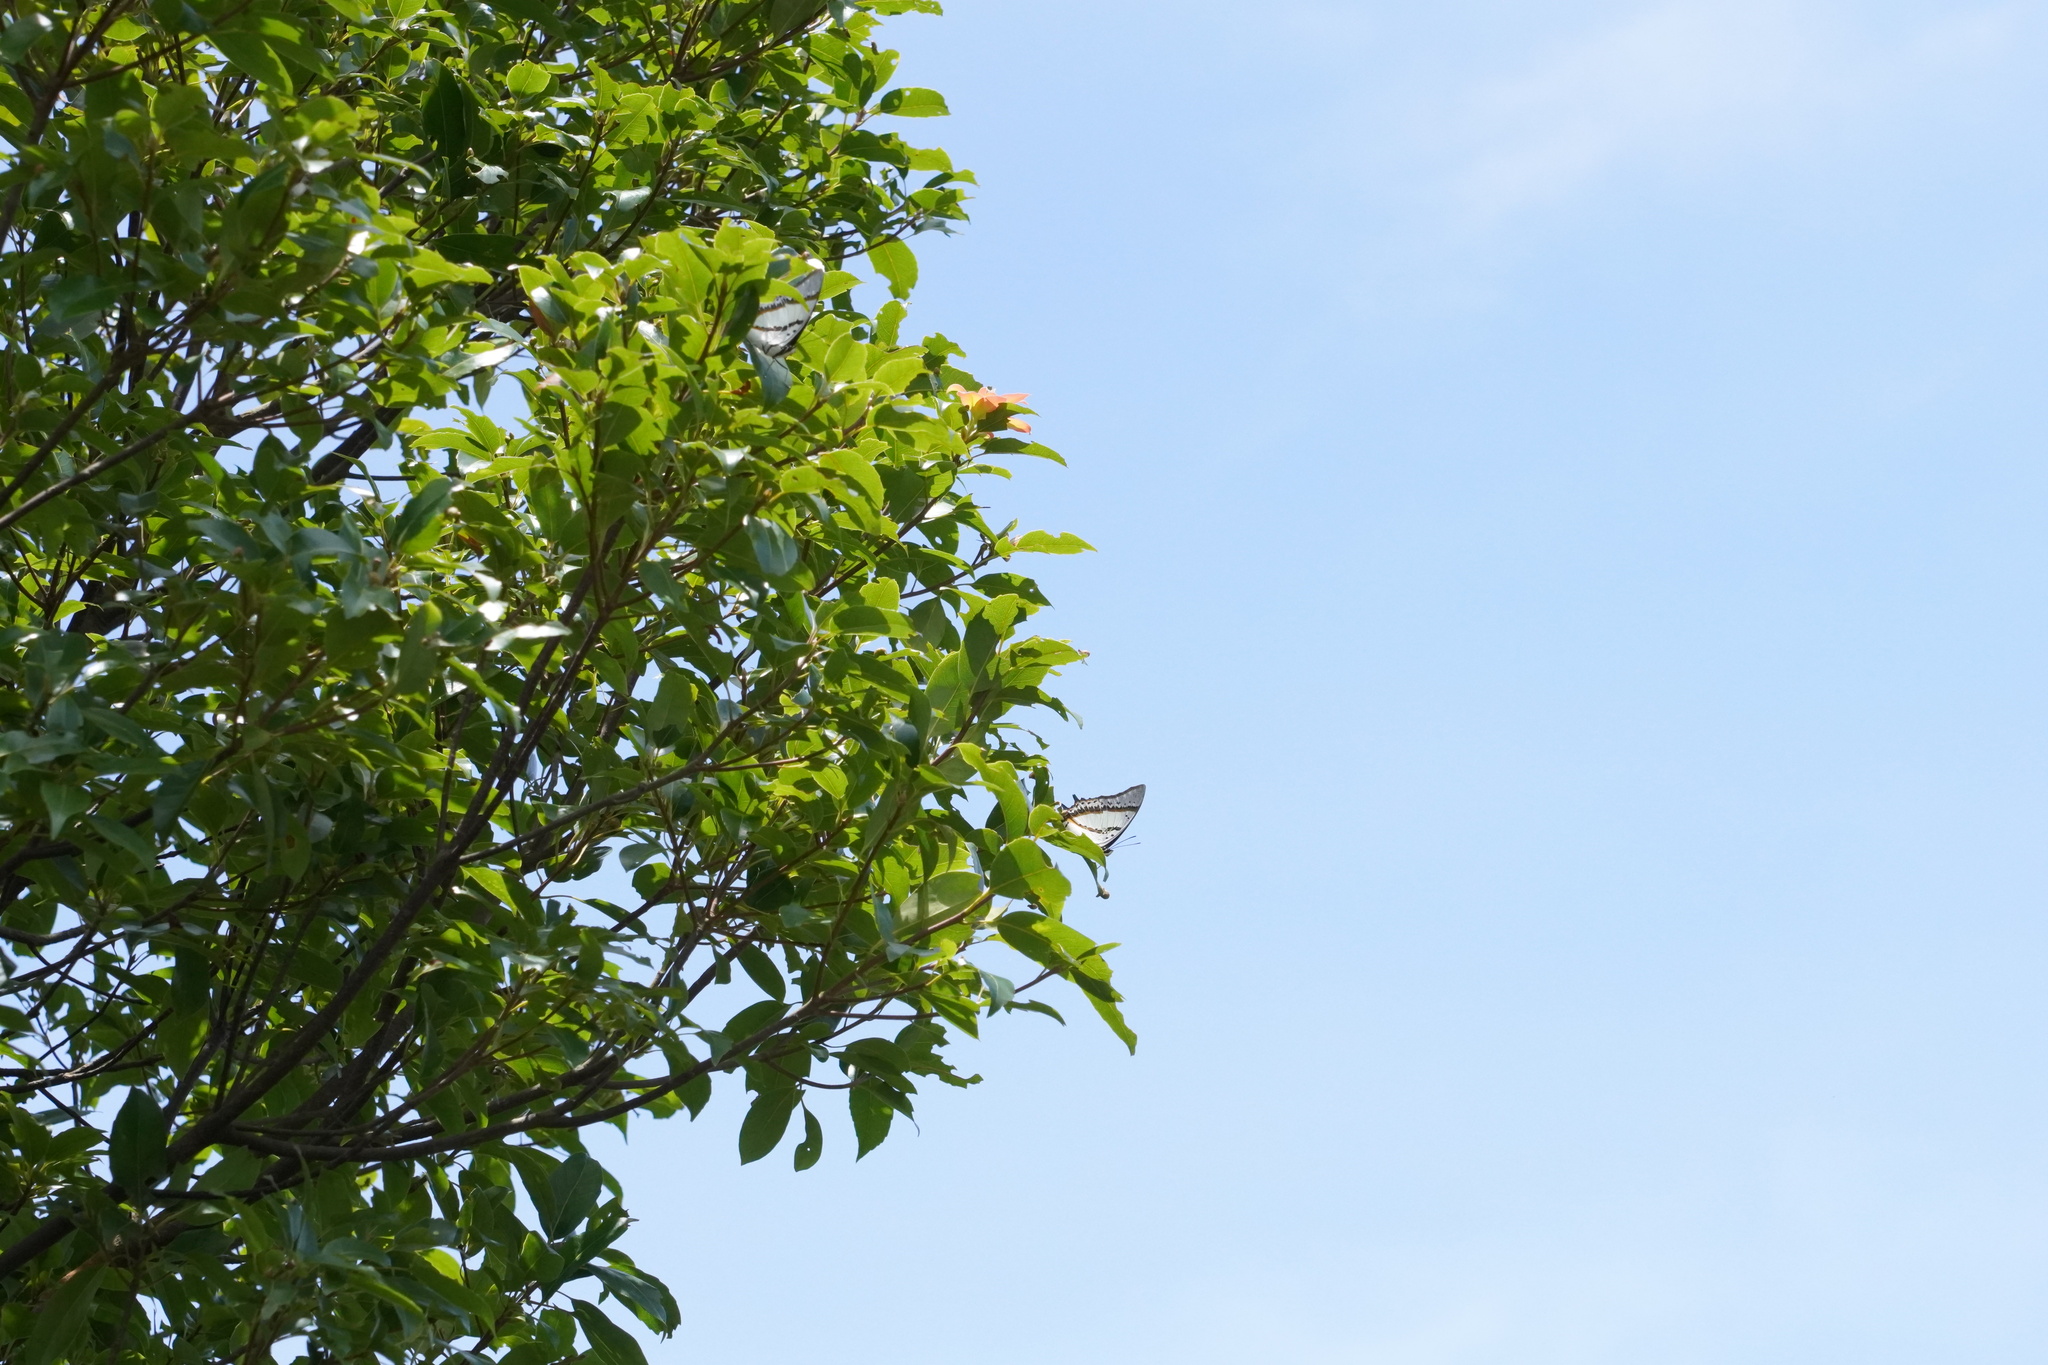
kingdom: Animalia
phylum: Arthropoda
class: Insecta
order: Lepidoptera
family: Nymphalidae
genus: Polyura
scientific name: Polyura nepenthes
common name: Shan nawab
